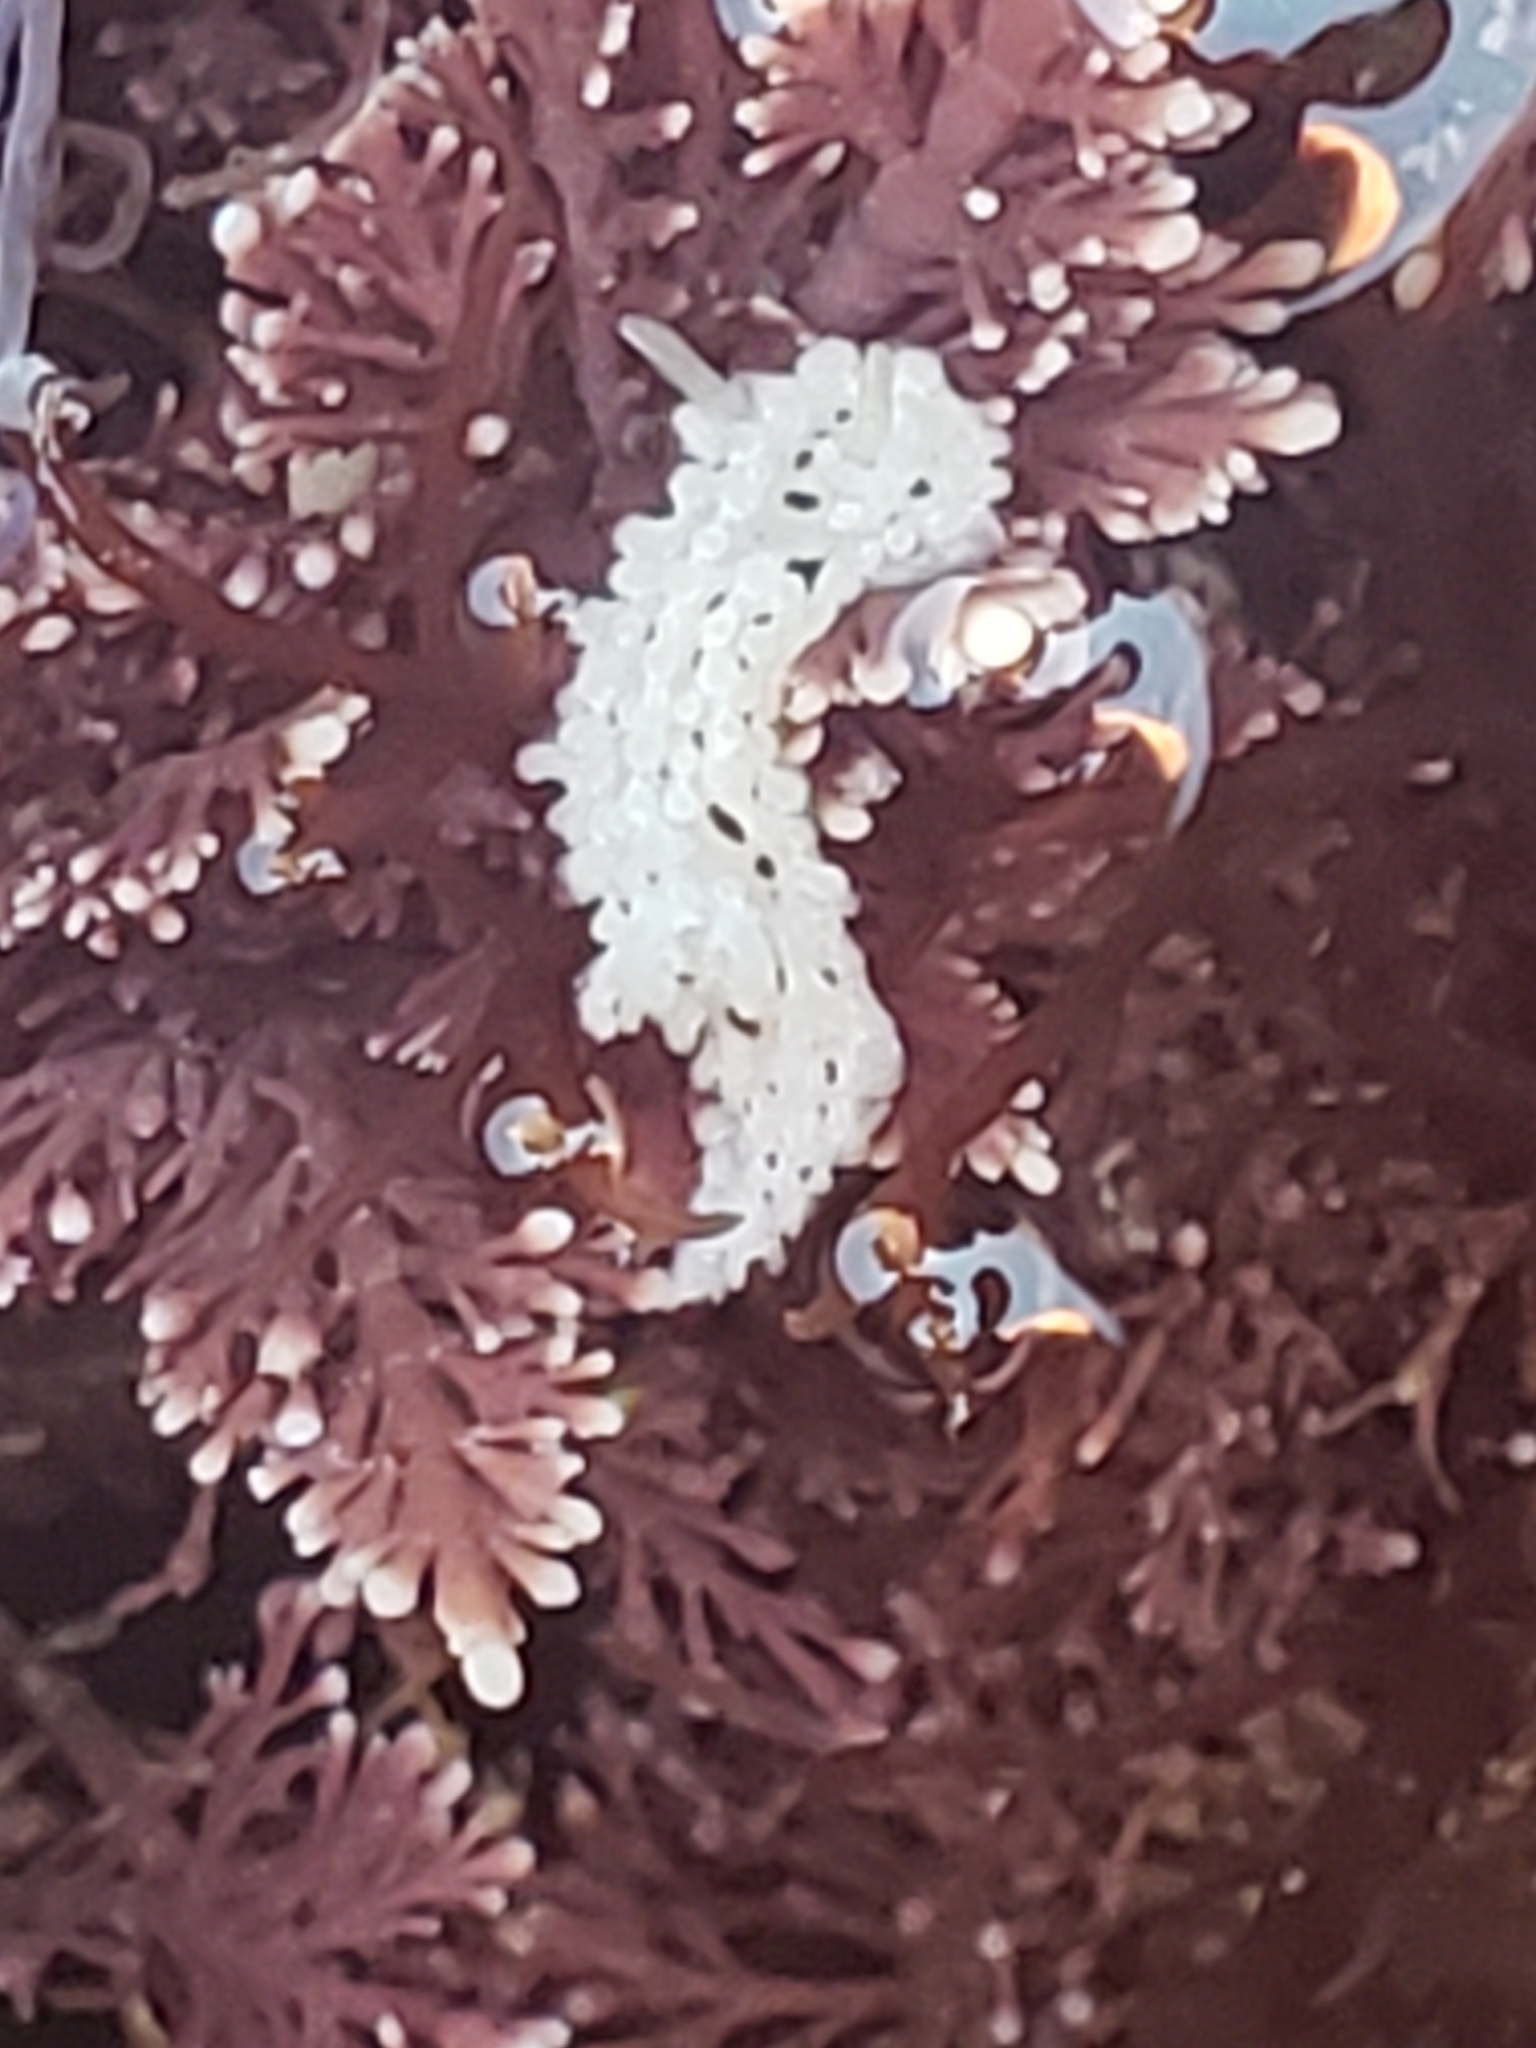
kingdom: Animalia
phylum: Mollusca
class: Gastropoda
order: Nudibranchia
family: Aegiridae
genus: Aegires
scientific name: Aegires albopunctatus
